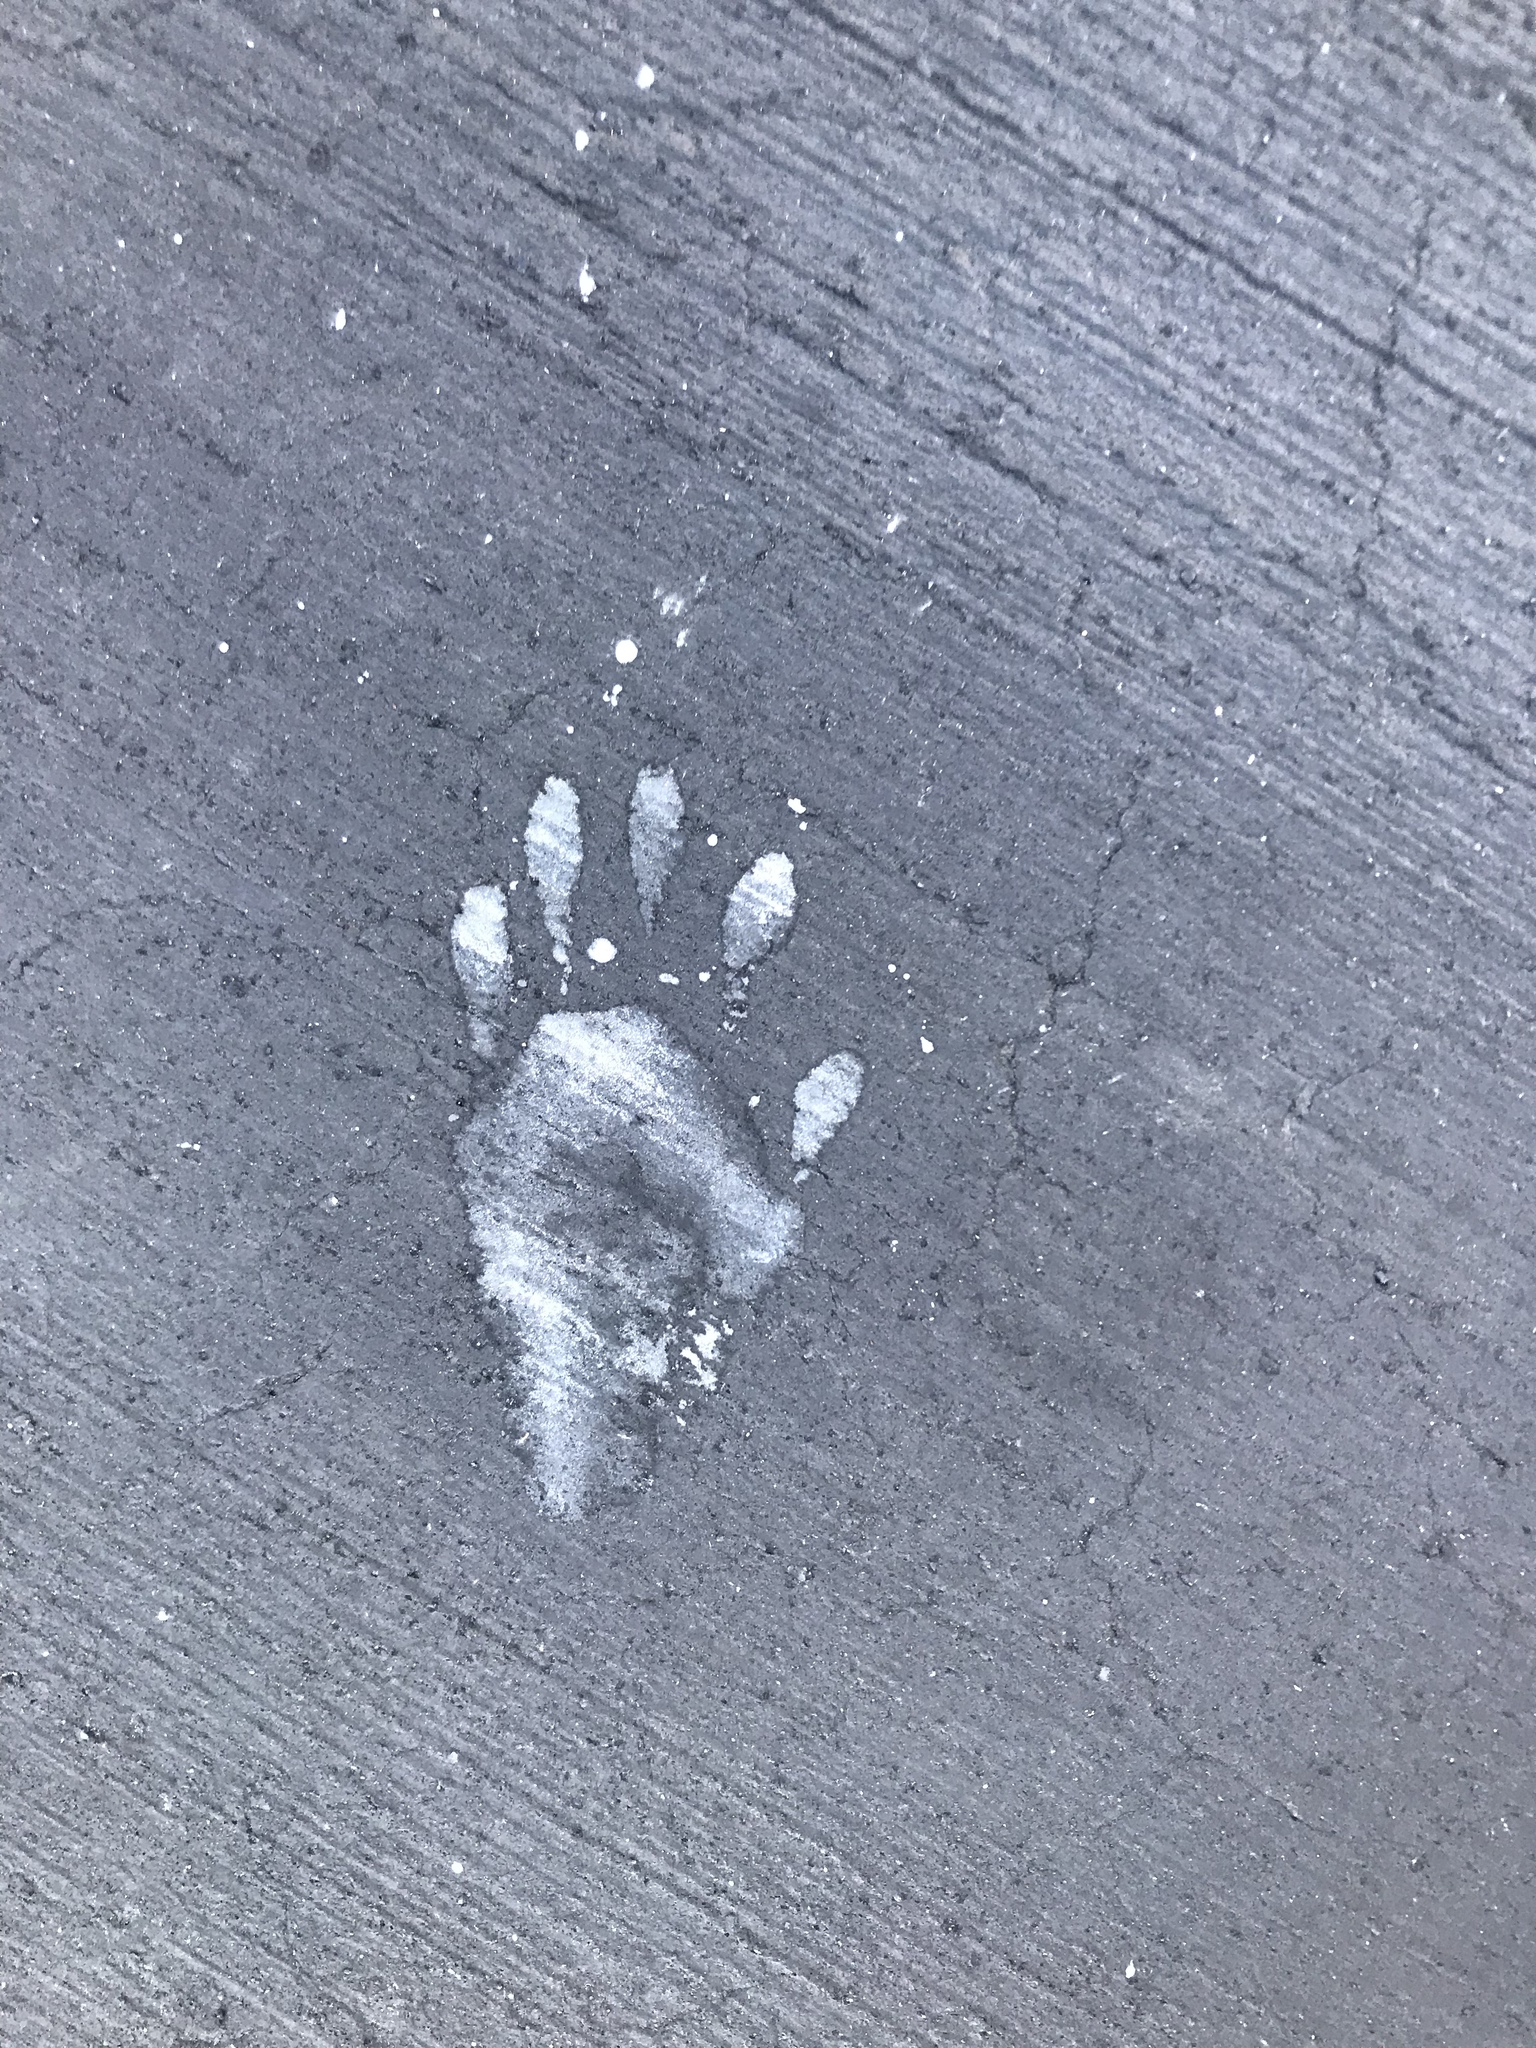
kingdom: Animalia
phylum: Chordata
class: Mammalia
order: Carnivora
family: Procyonidae
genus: Procyon
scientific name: Procyon lotor
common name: Raccoon
